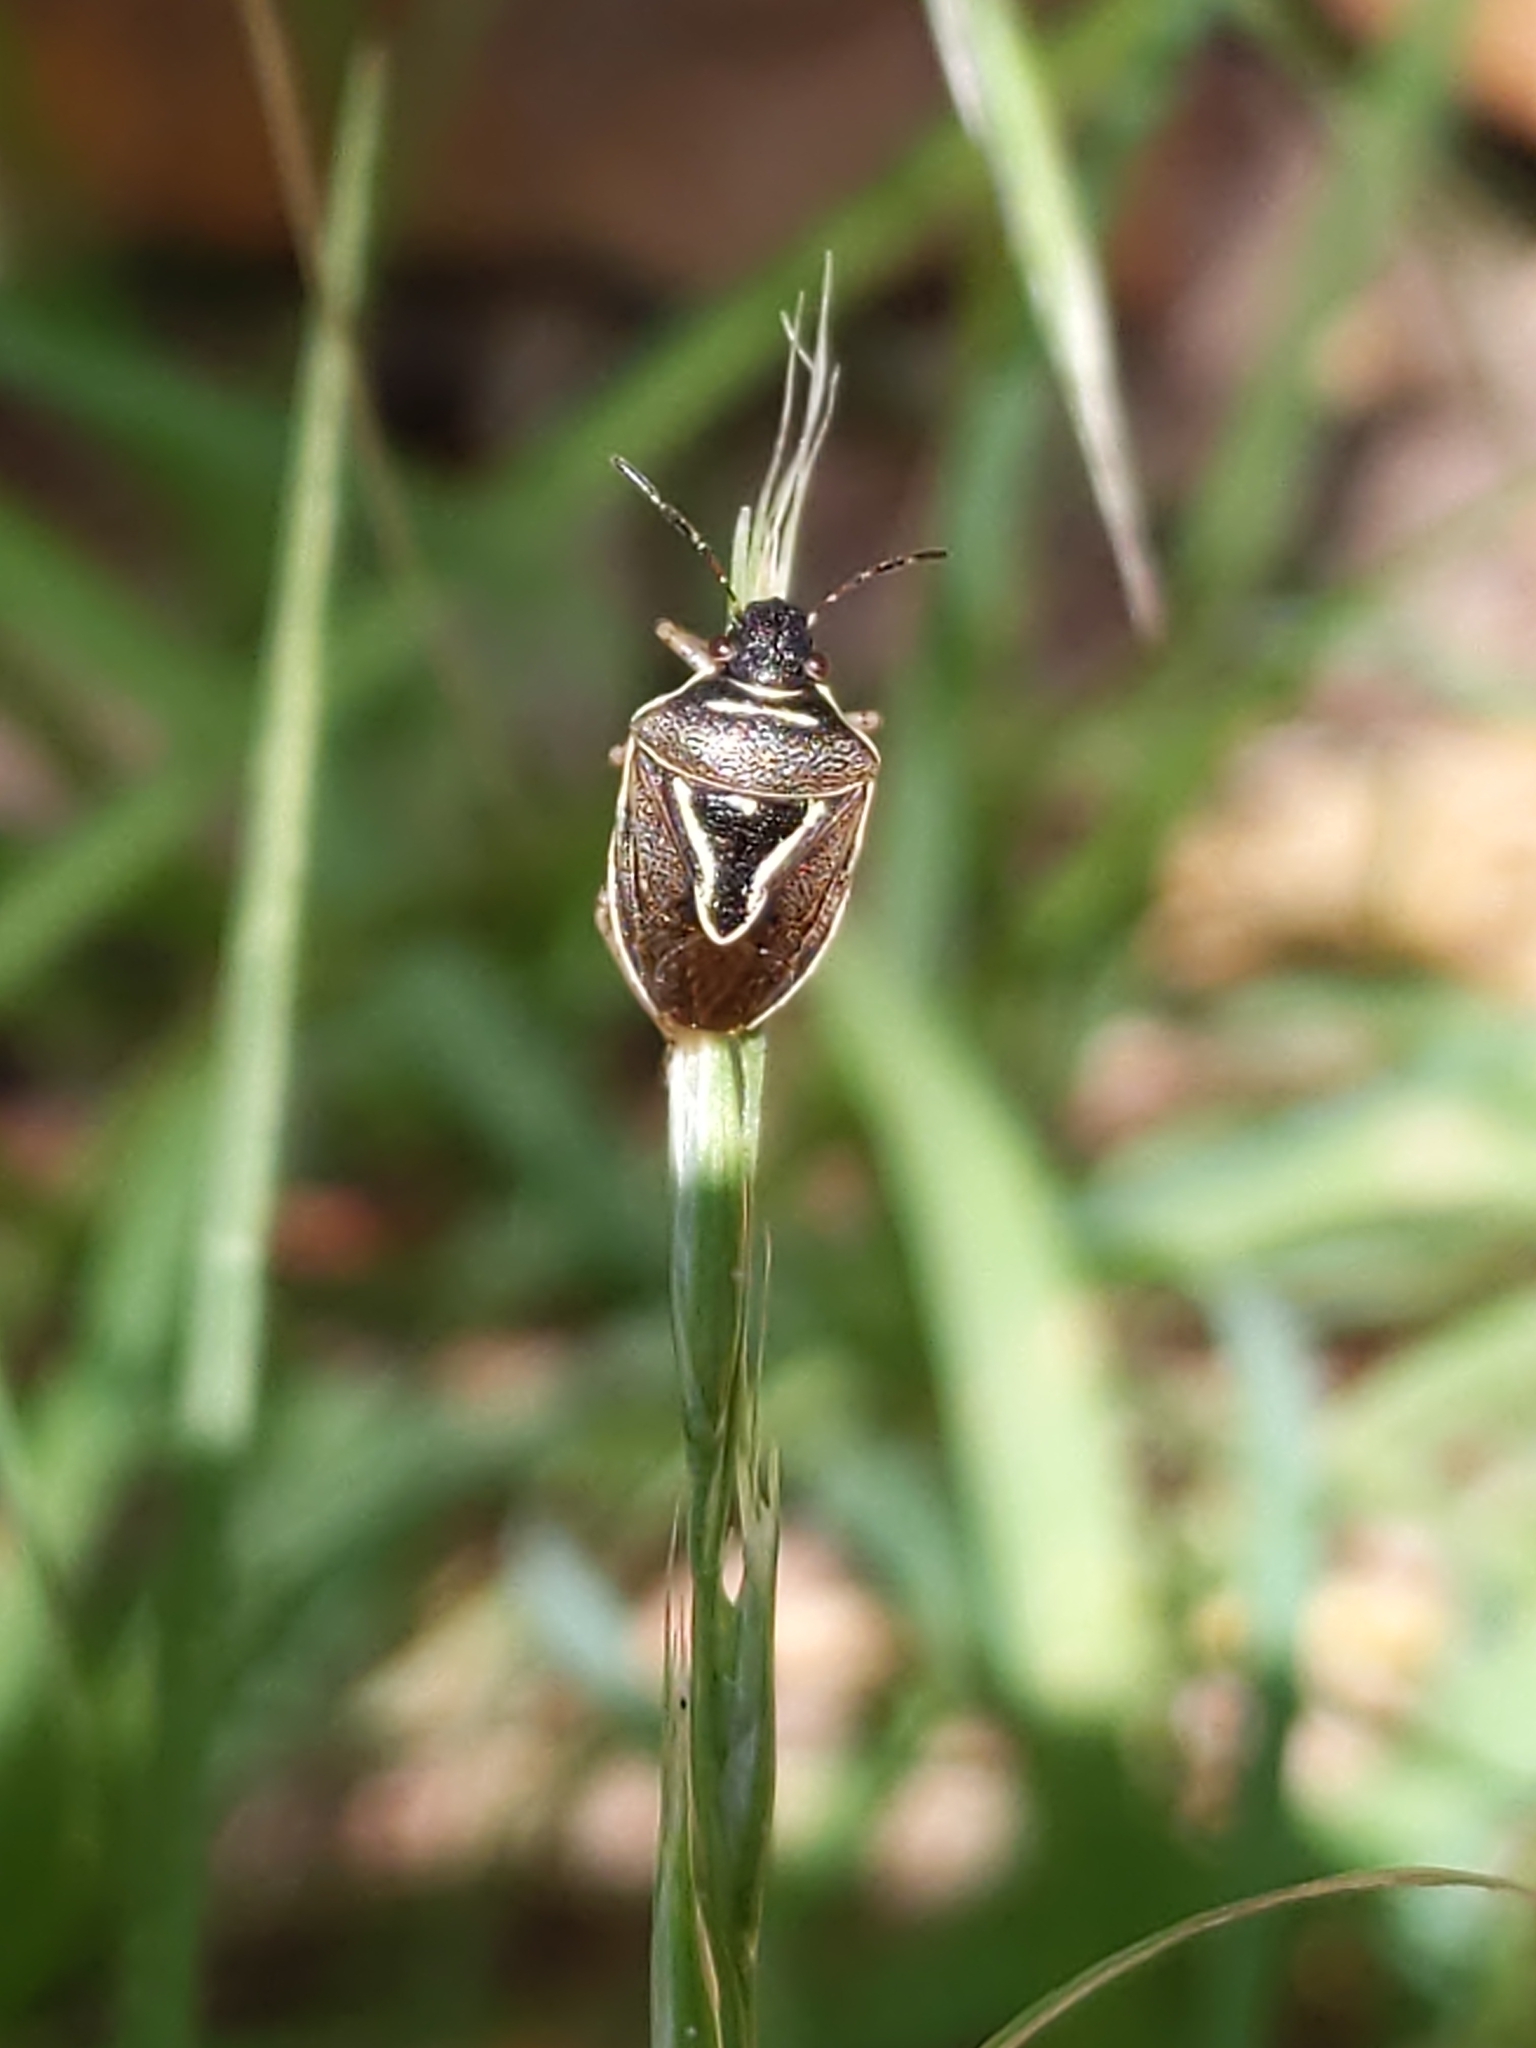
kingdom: Animalia
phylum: Arthropoda
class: Insecta
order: Hemiptera
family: Pentatomidae
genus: Mormidea
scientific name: Mormidea lugens
